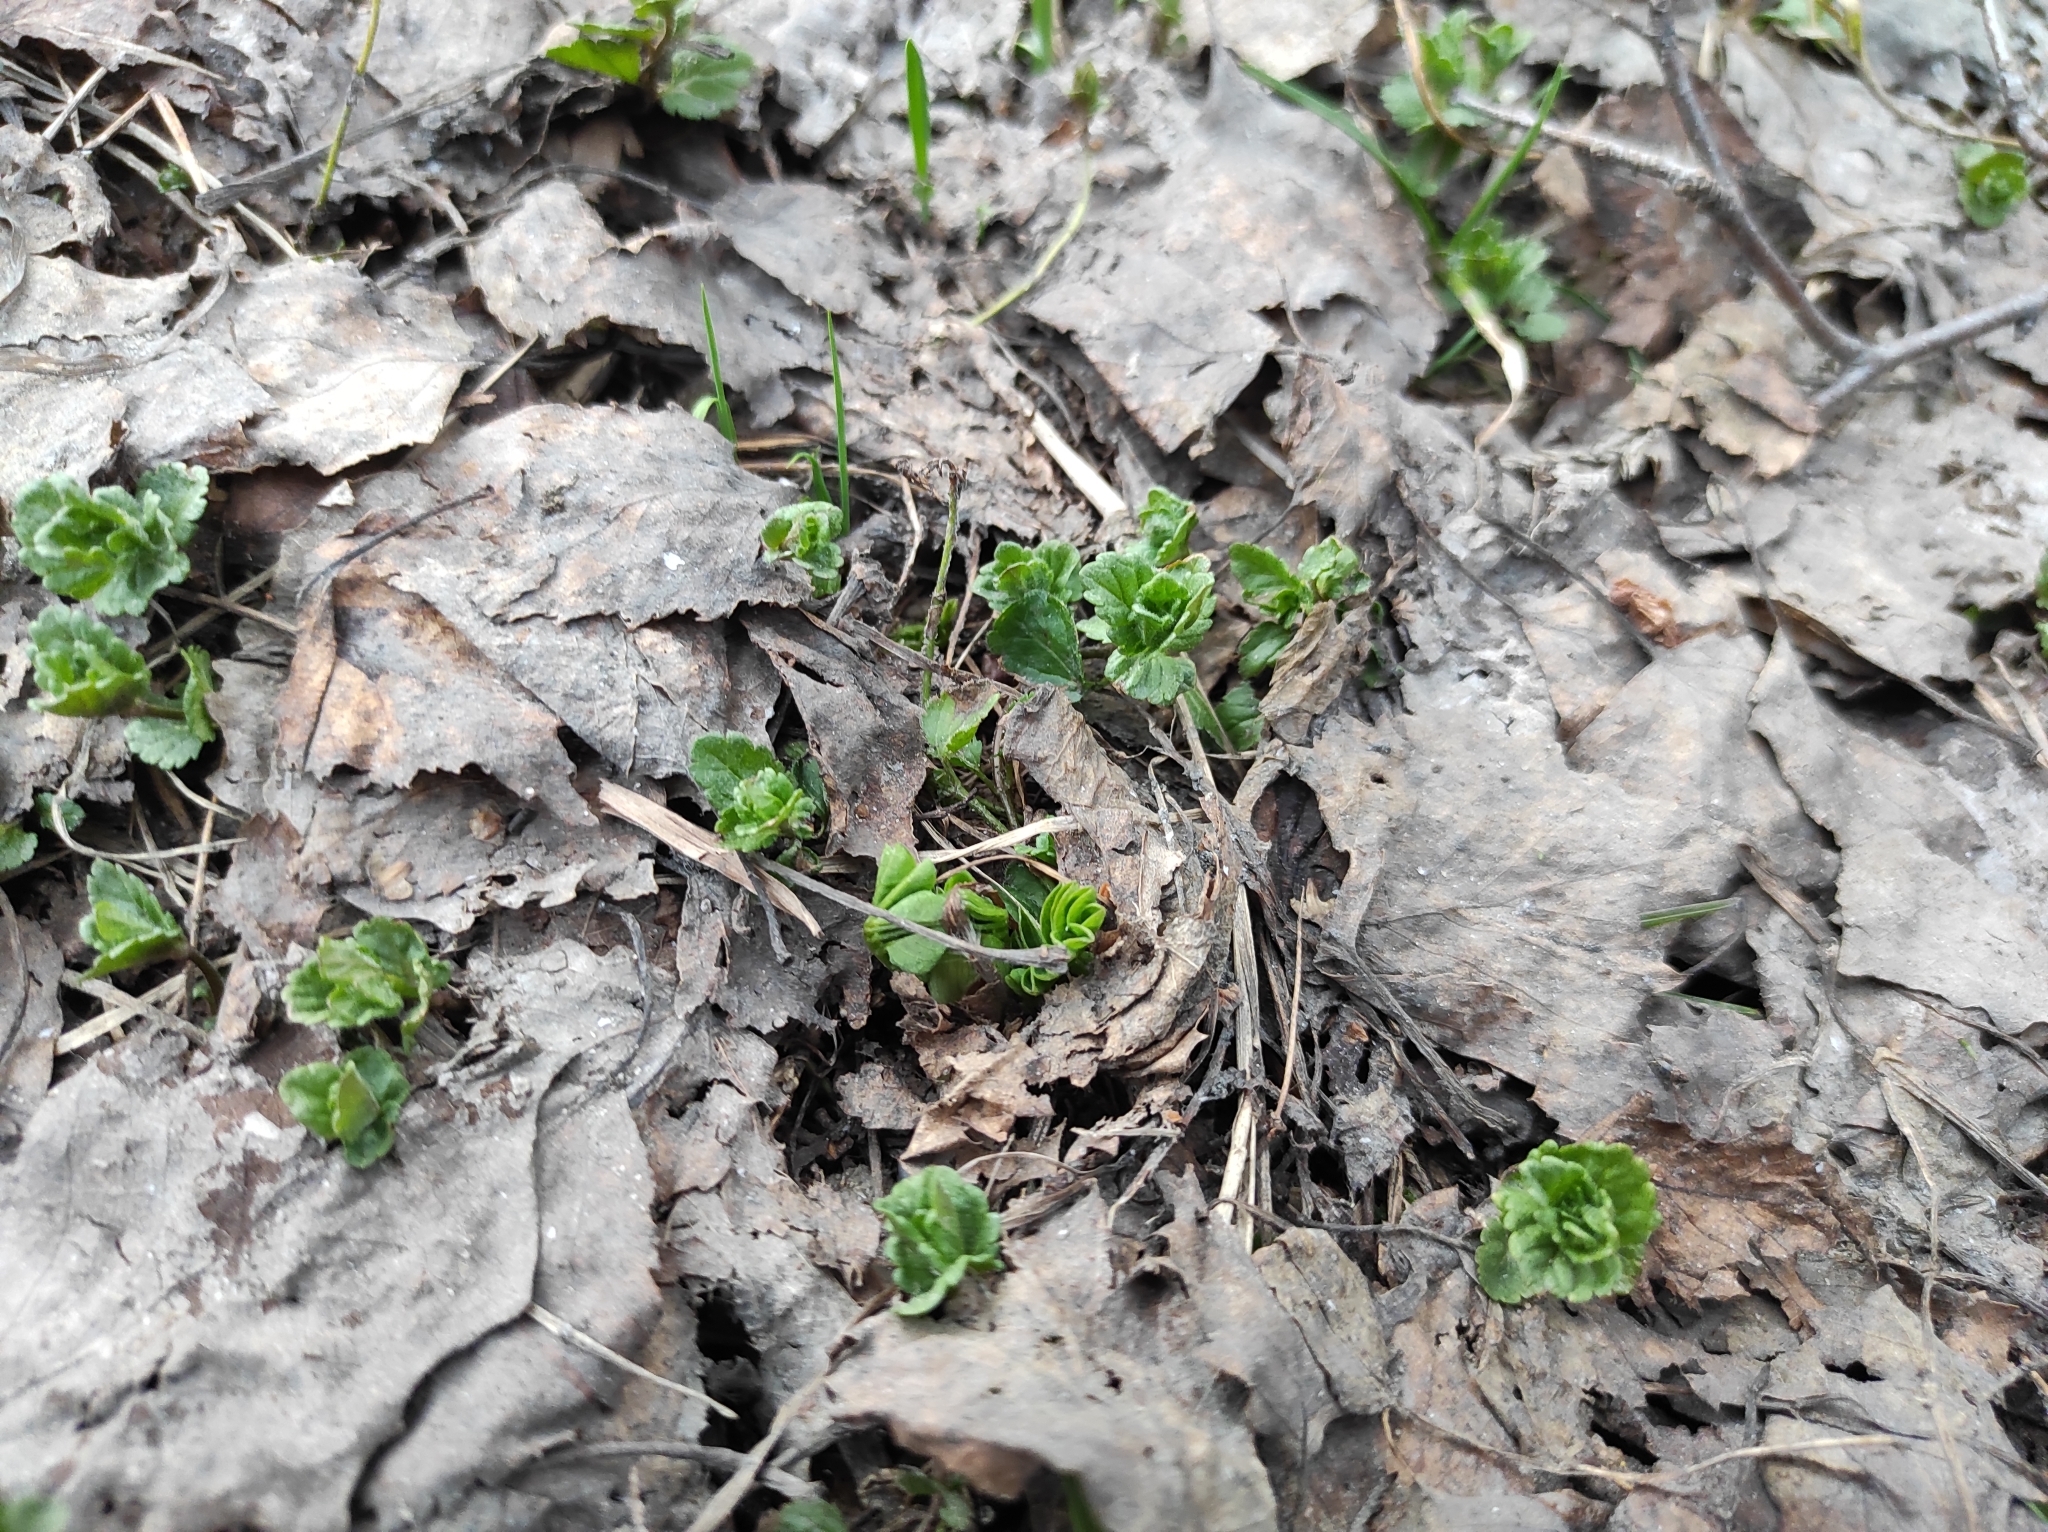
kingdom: Plantae
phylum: Tracheophyta
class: Magnoliopsida
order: Lamiales
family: Plantaginaceae
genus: Veronica
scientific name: Veronica chamaedrys
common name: Germander speedwell
